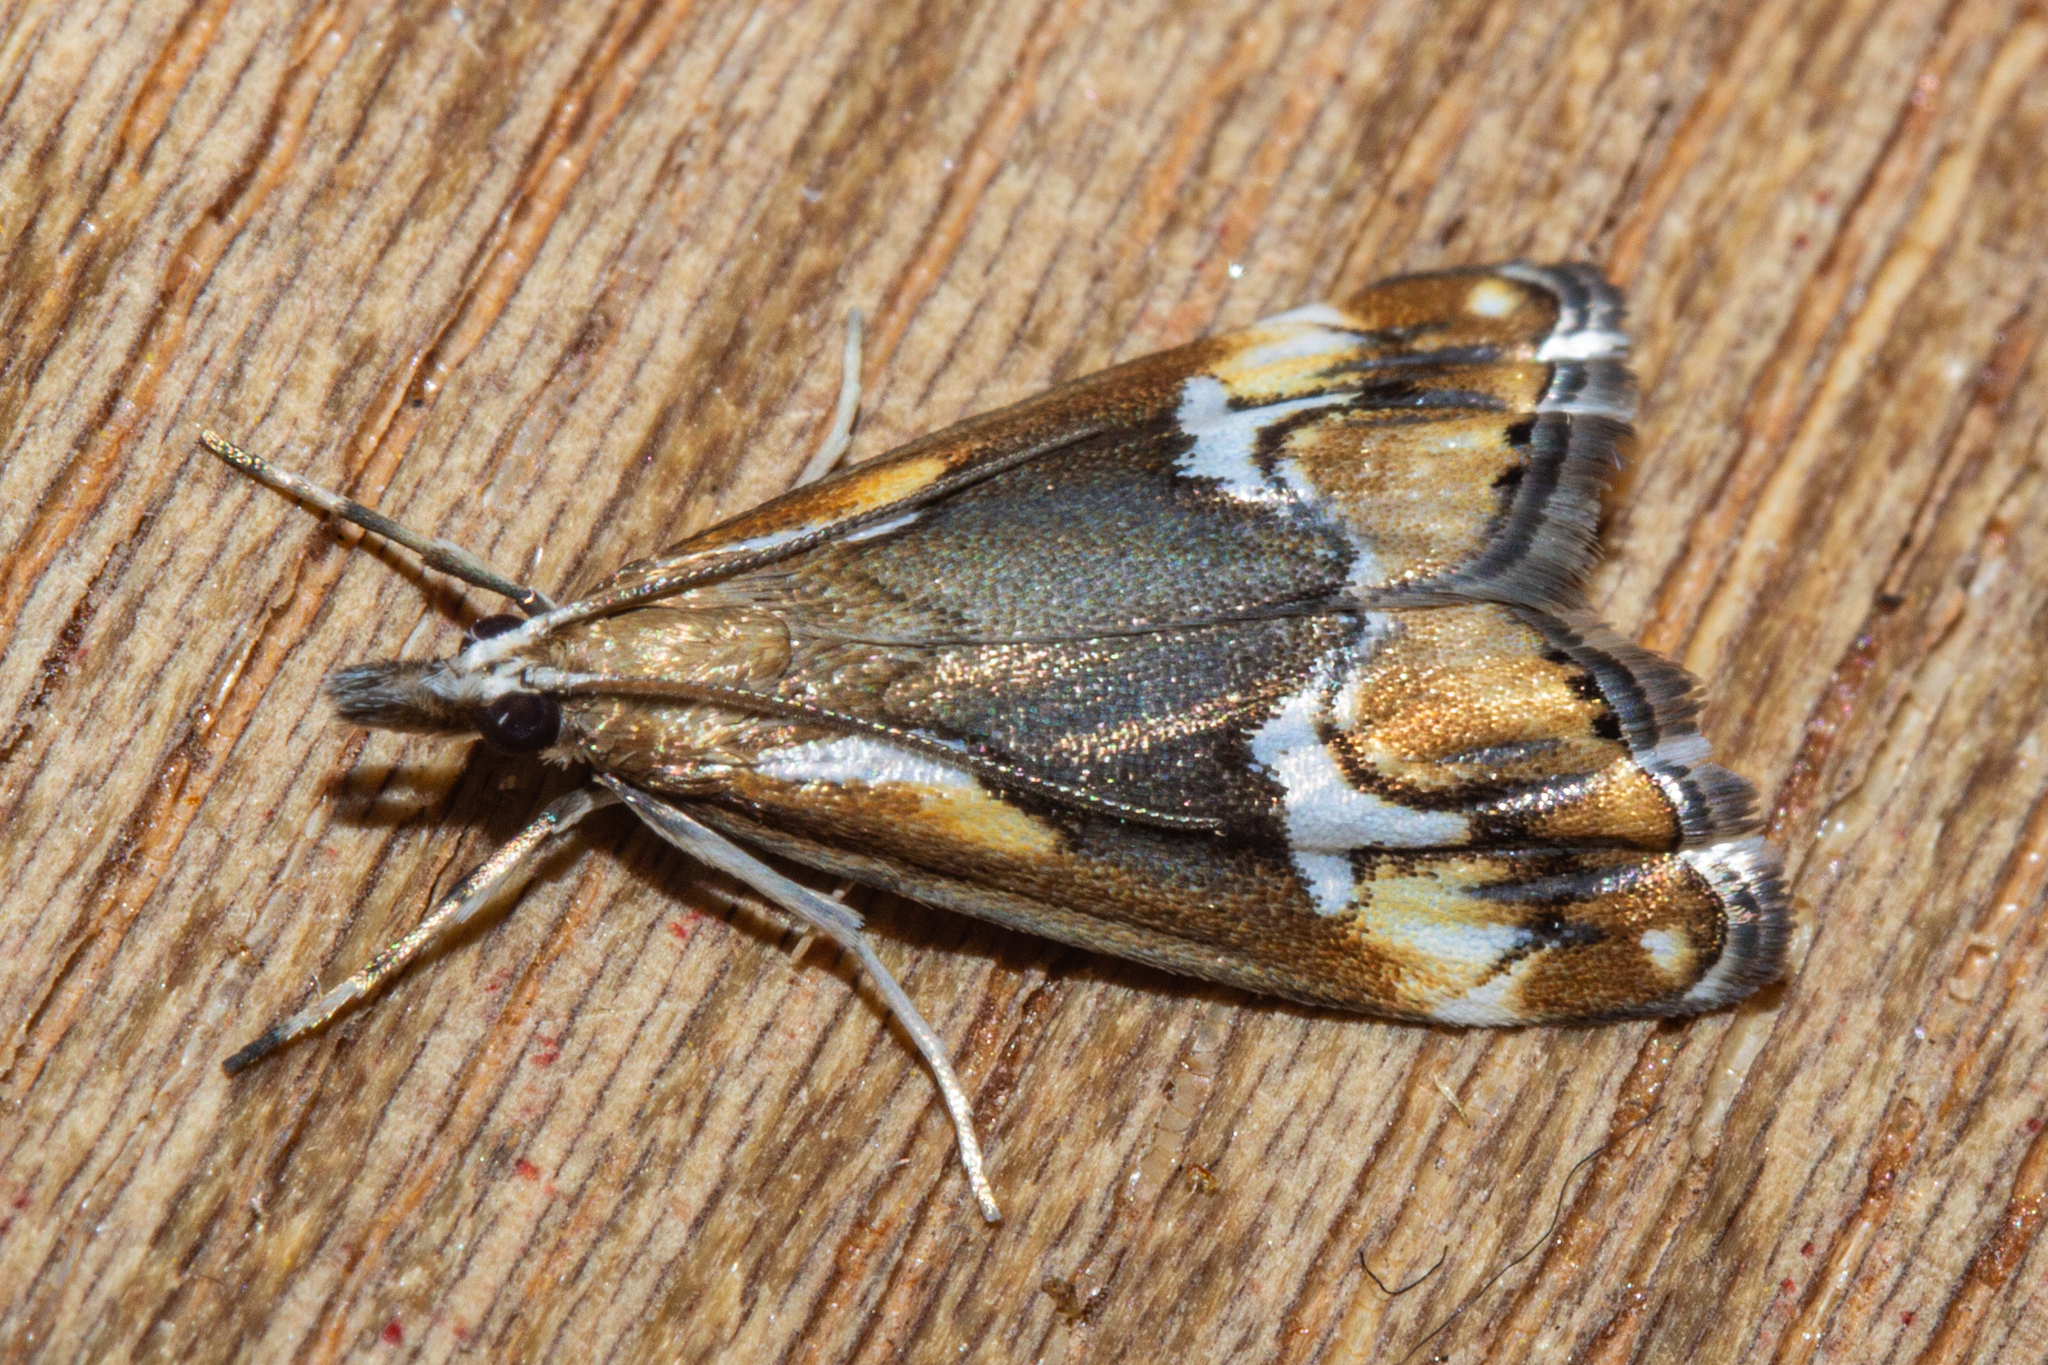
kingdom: Animalia
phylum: Arthropoda
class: Insecta
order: Lepidoptera
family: Crambidae
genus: Glaucocharis
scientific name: Glaucocharis interruptus
